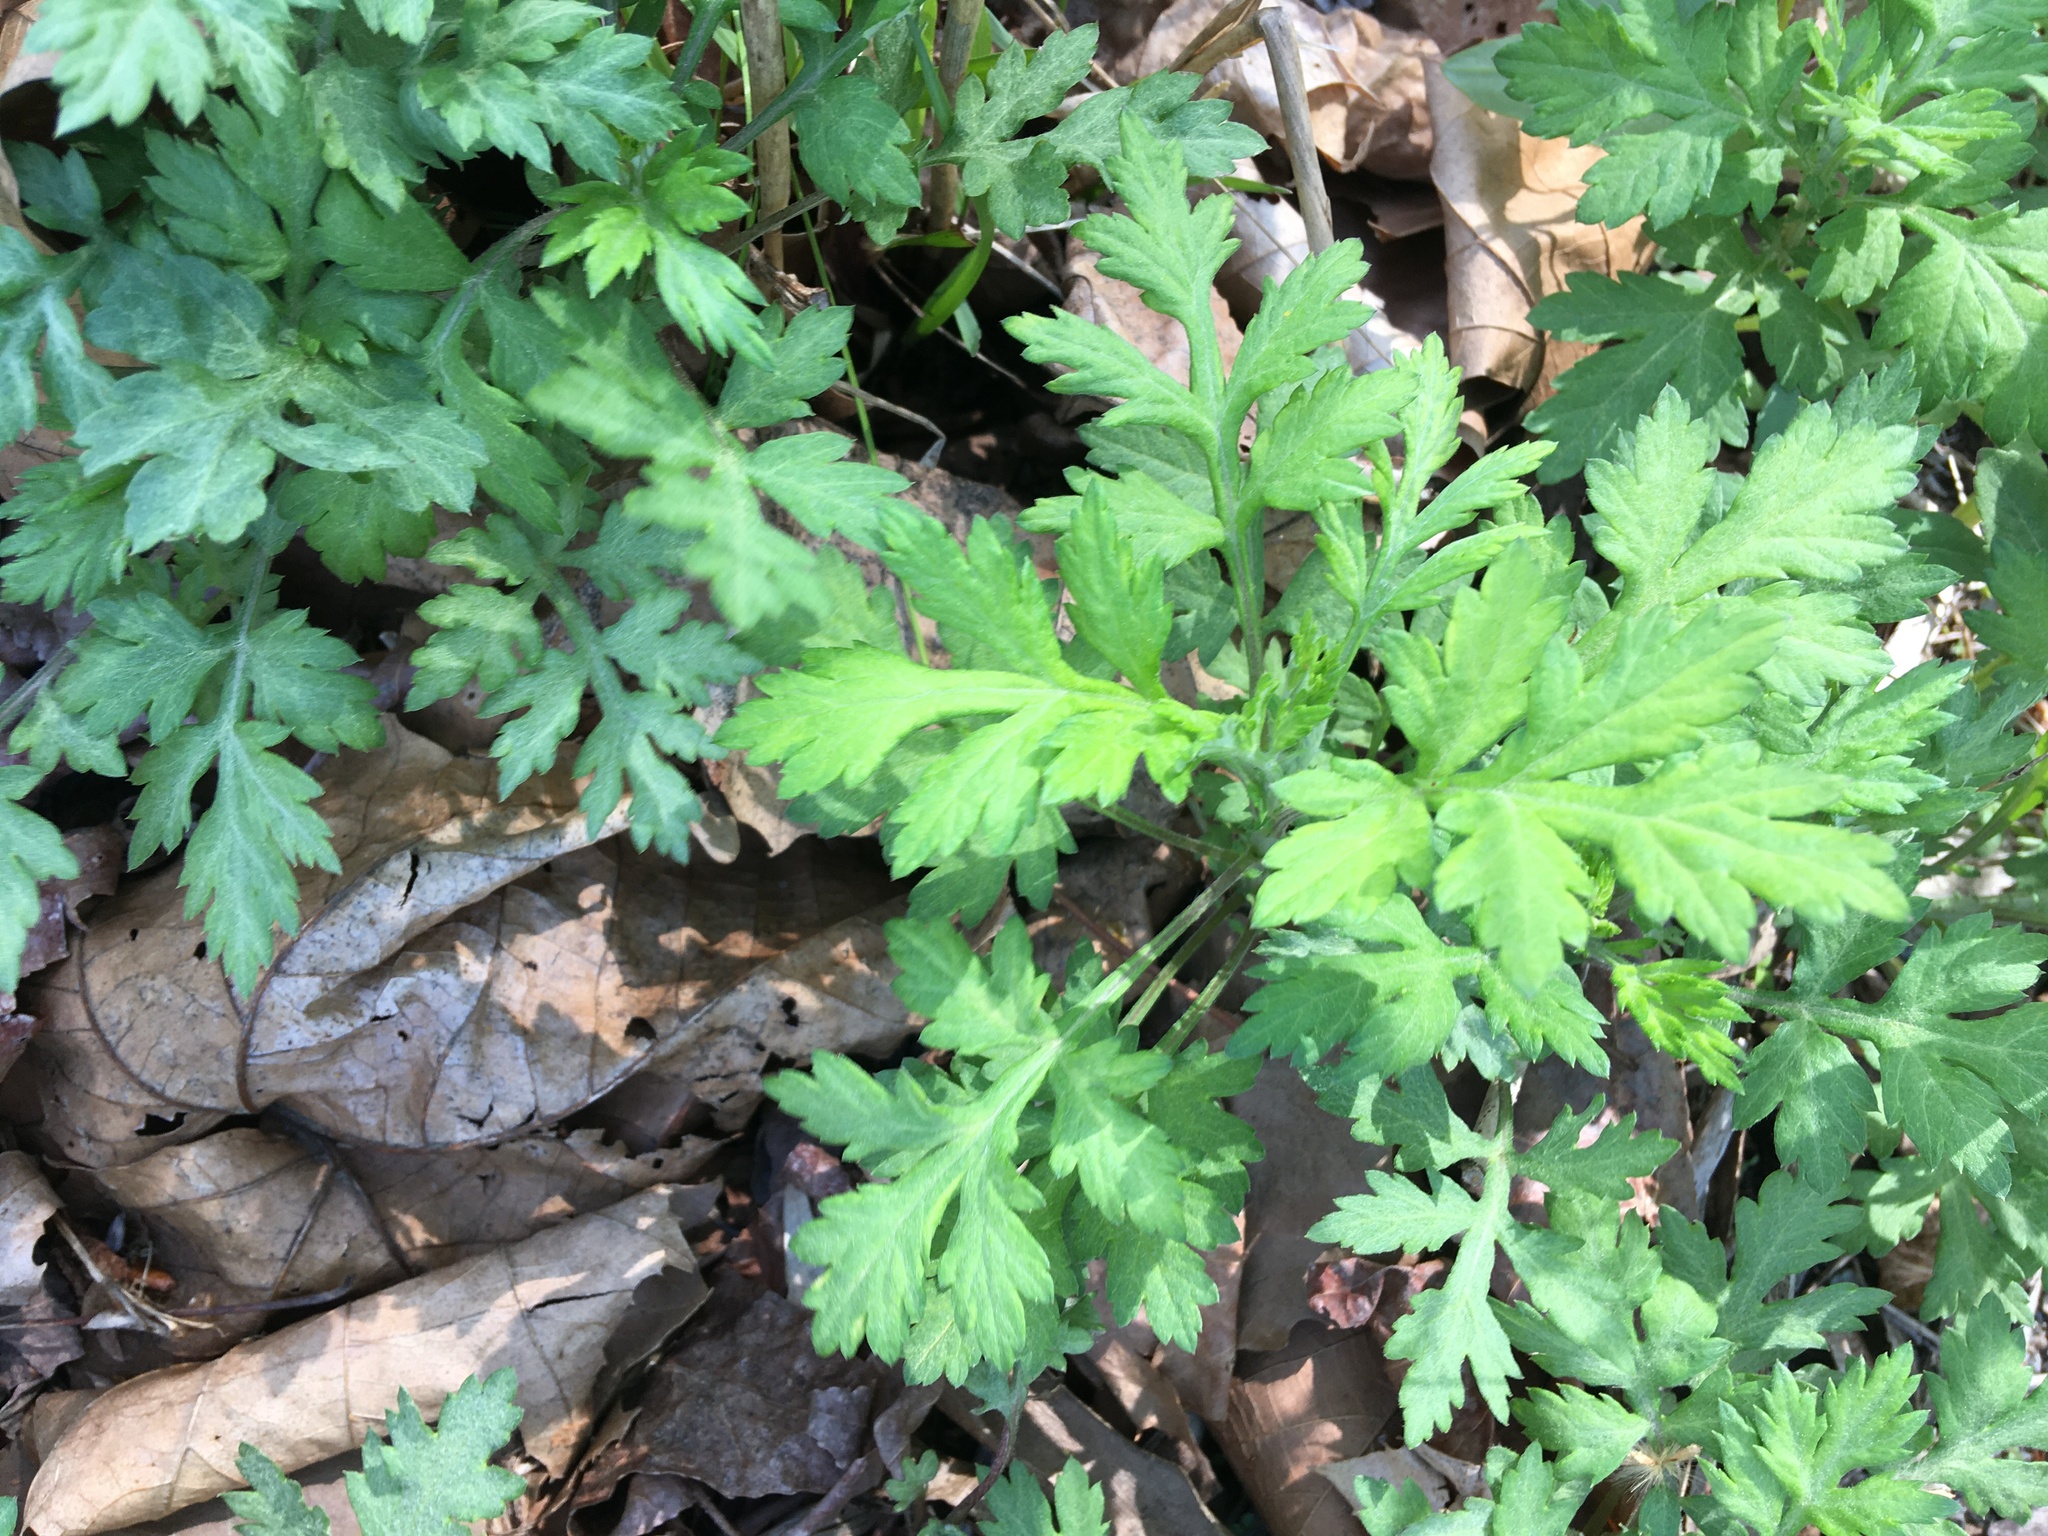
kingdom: Plantae
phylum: Tracheophyta
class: Magnoliopsida
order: Asterales
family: Asteraceae
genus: Artemisia
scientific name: Artemisia vulgaris
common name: Mugwort
